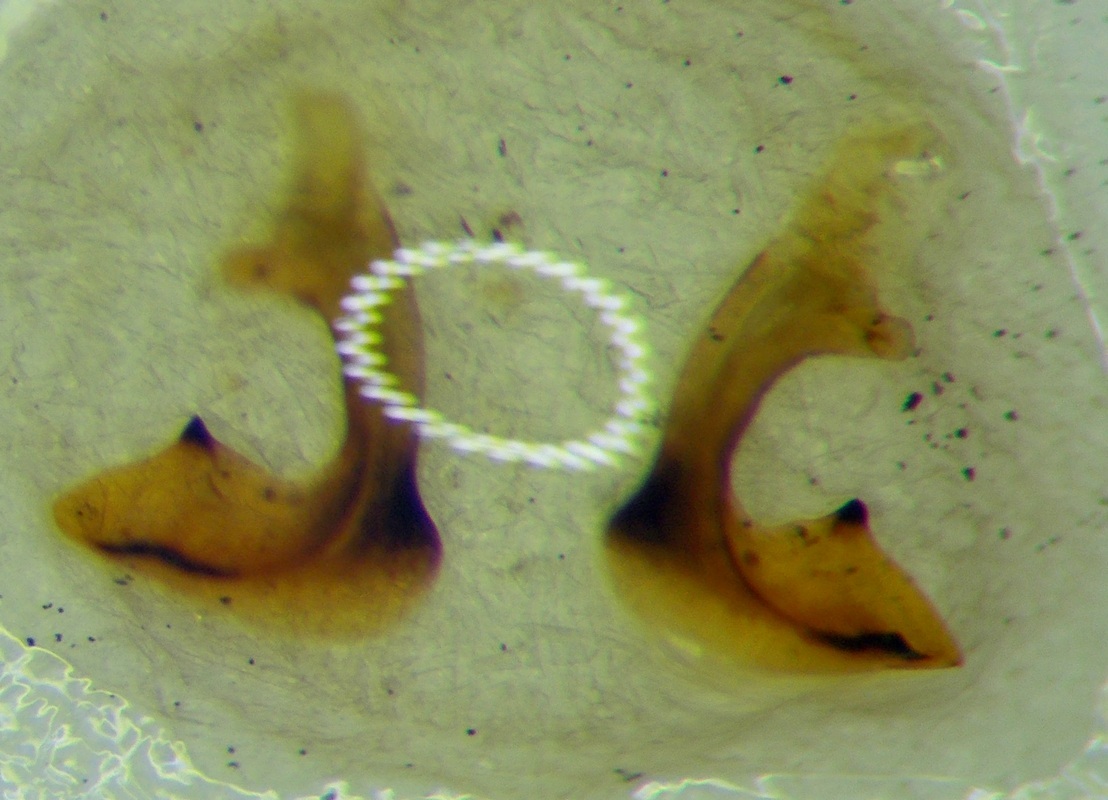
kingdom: Animalia
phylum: Arthropoda
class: Insecta
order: Hemiptera
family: Pentatomidae
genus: Carpocoris
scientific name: Carpocoris purpureipennis
